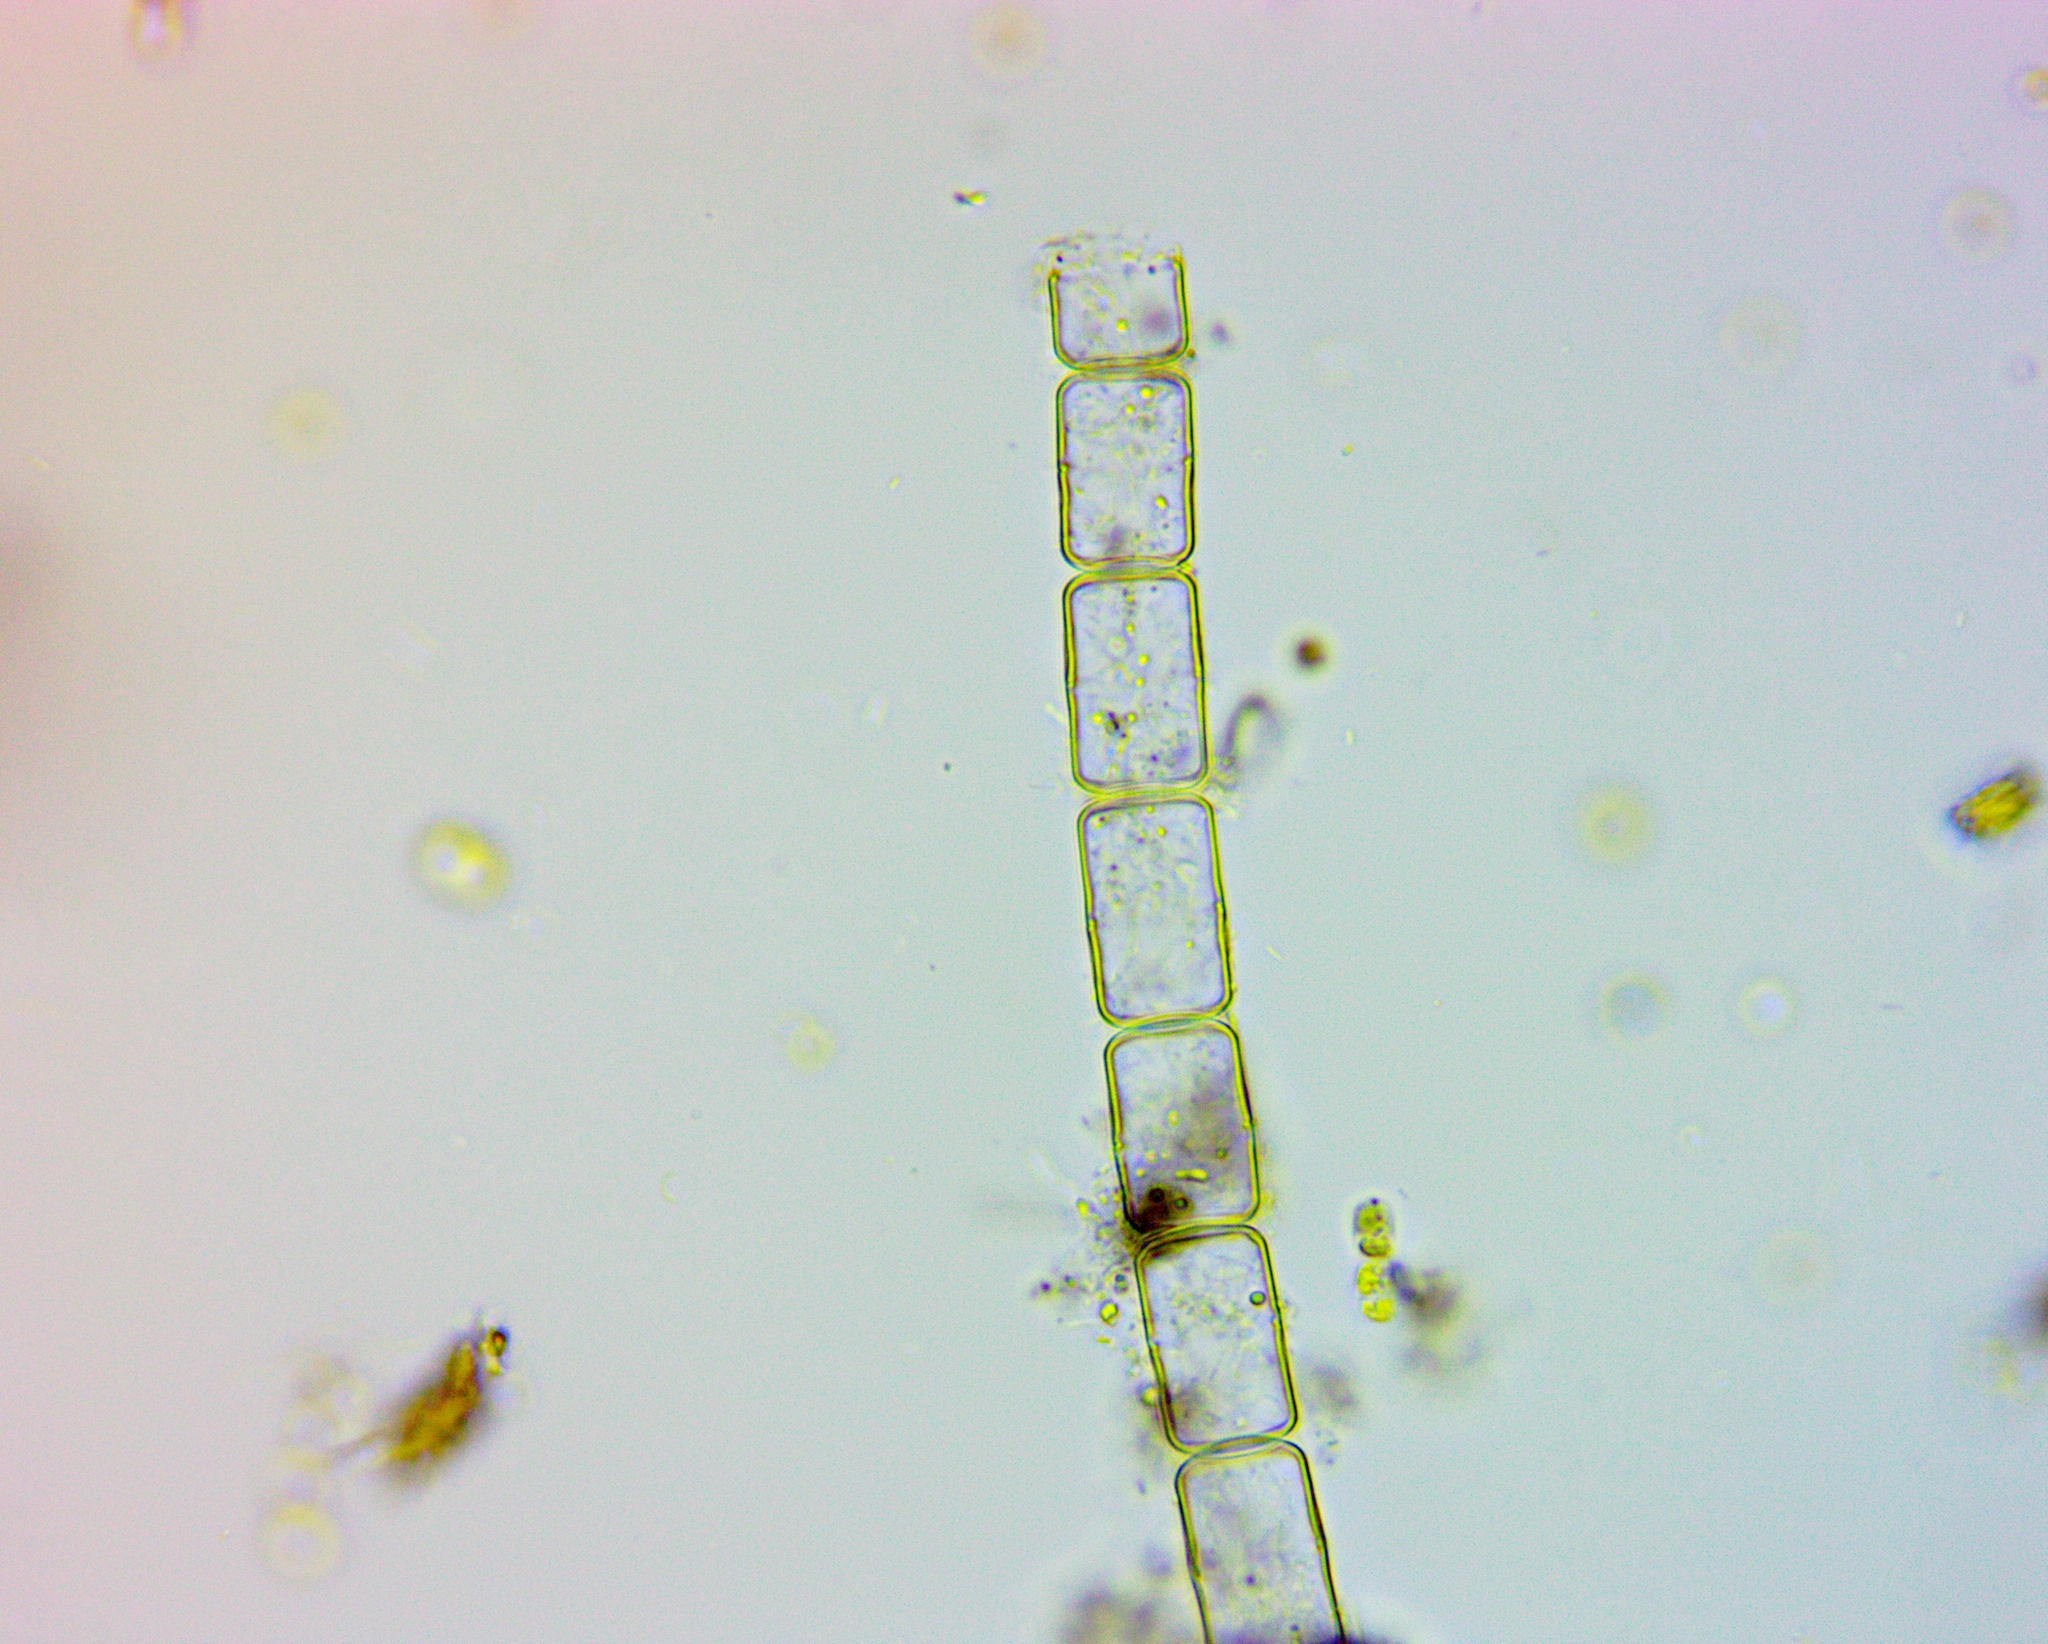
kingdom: Chromista
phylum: Ochrophyta
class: Bacillariophyceae
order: Melosirales
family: Melosiraceae
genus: Melosira
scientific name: Melosira varians
